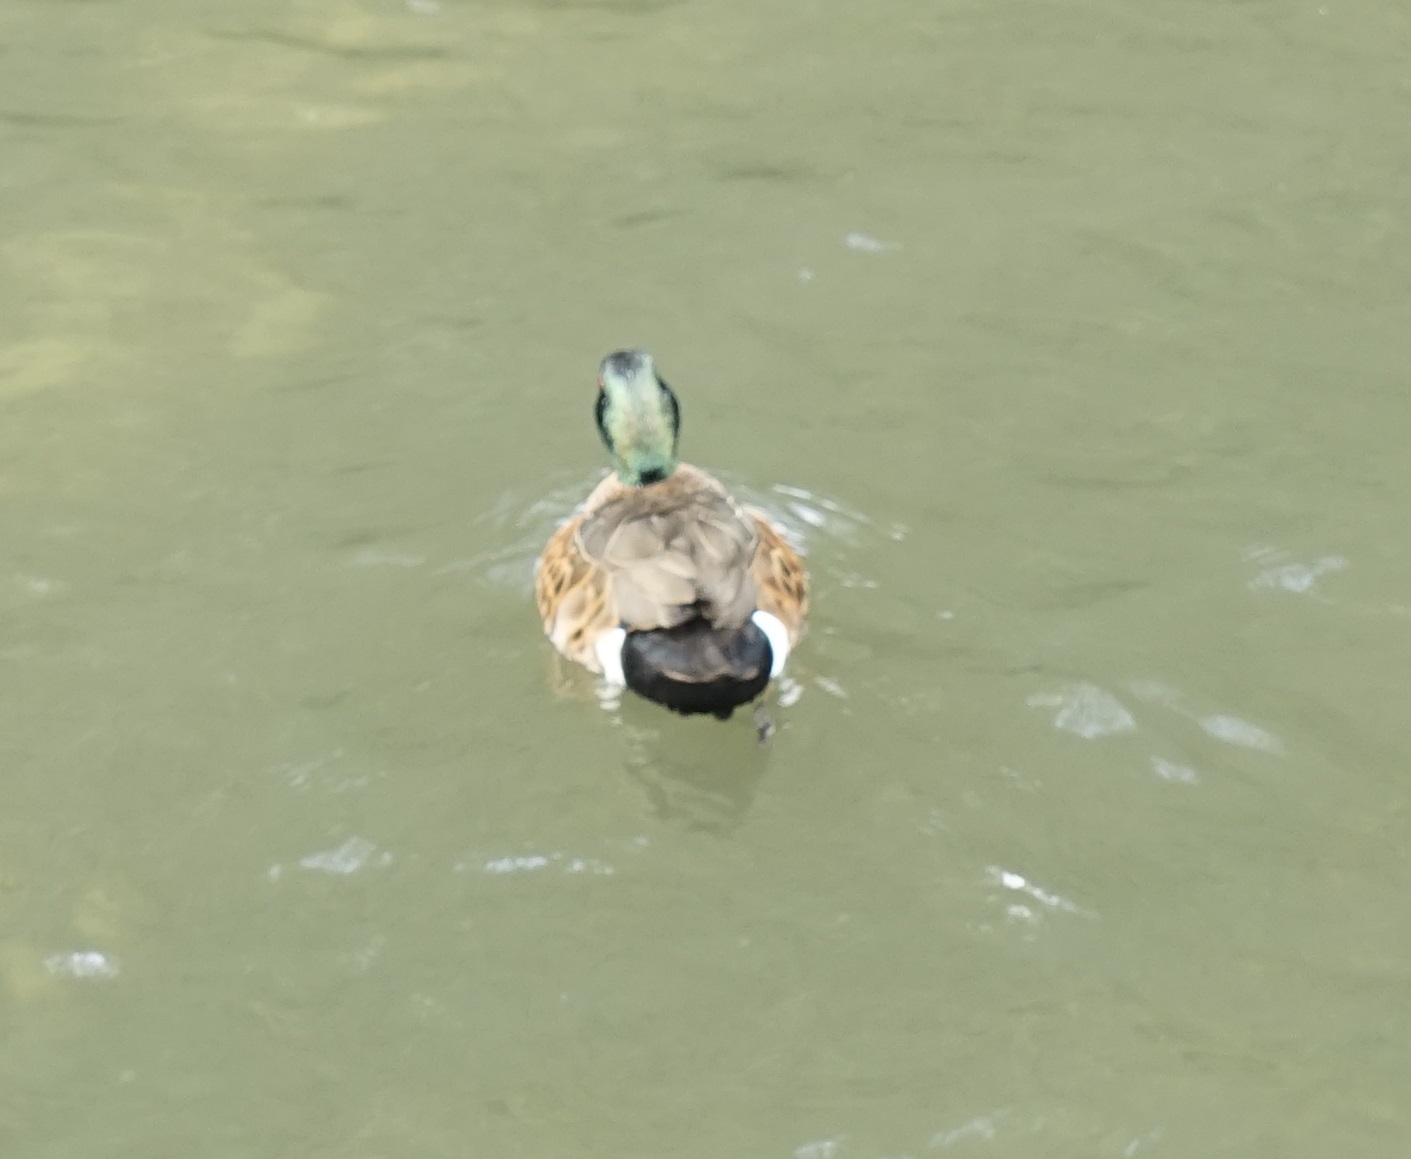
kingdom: Animalia
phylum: Chordata
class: Aves
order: Anseriformes
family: Anatidae
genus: Anas
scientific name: Anas castanea
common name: Chestnut teal
